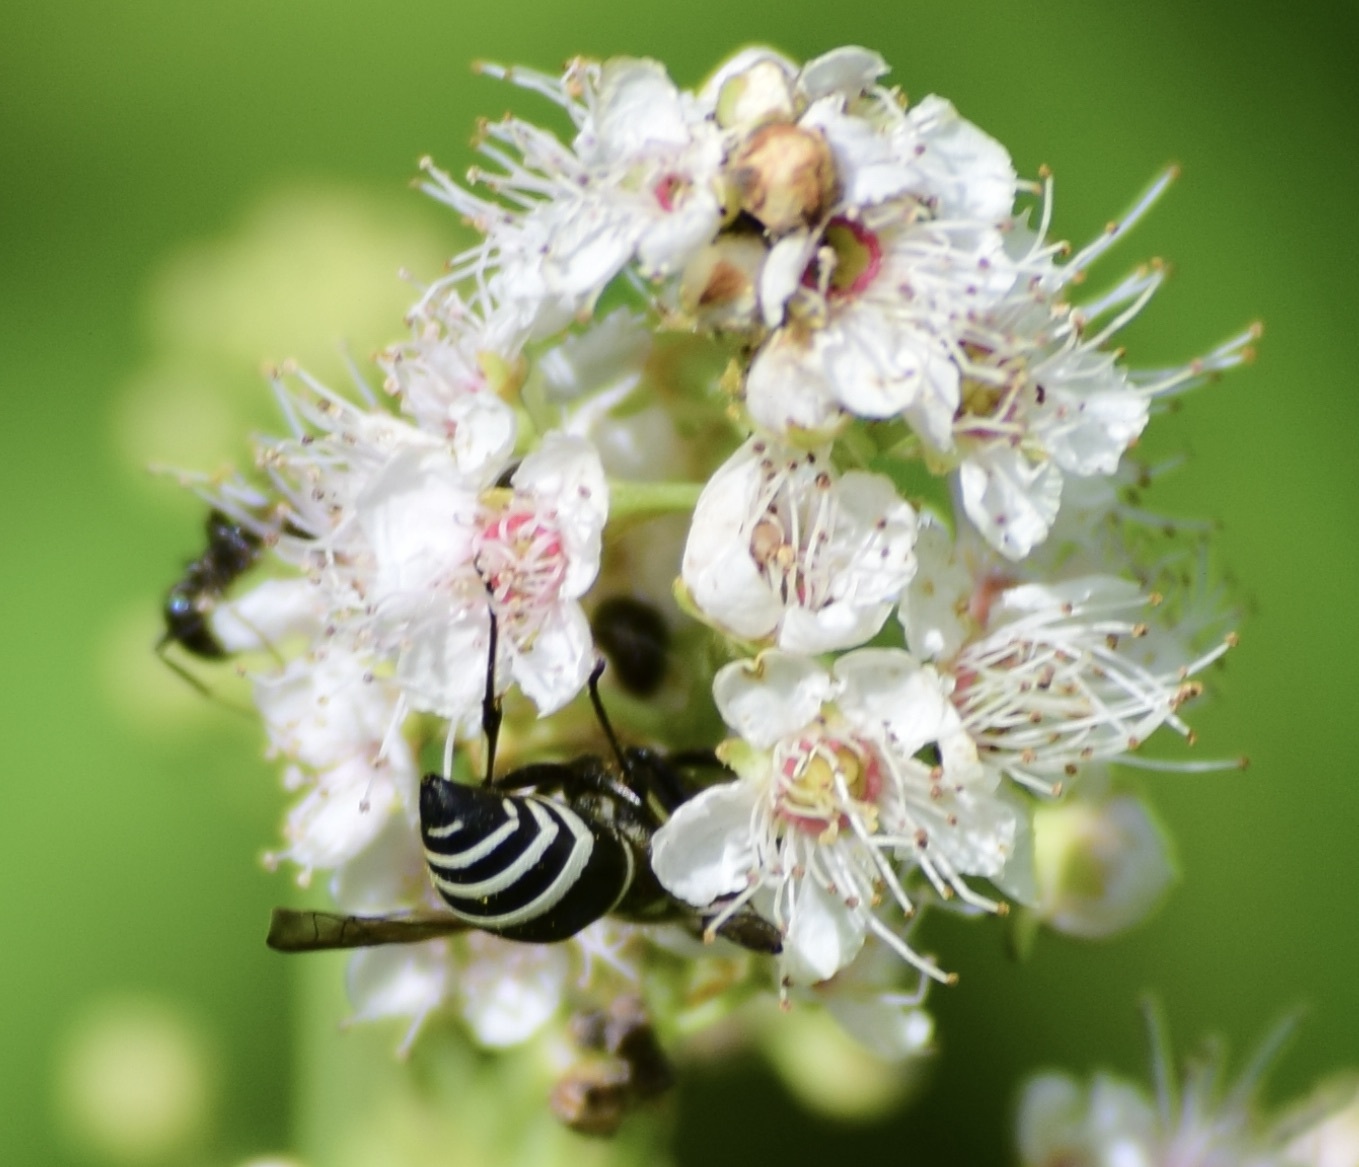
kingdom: Animalia
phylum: Arthropoda
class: Insecta
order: Hymenoptera
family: Vespidae
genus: Ancistrocerus
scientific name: Ancistrocerus albophaleratus
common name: White-banded potter wasp
